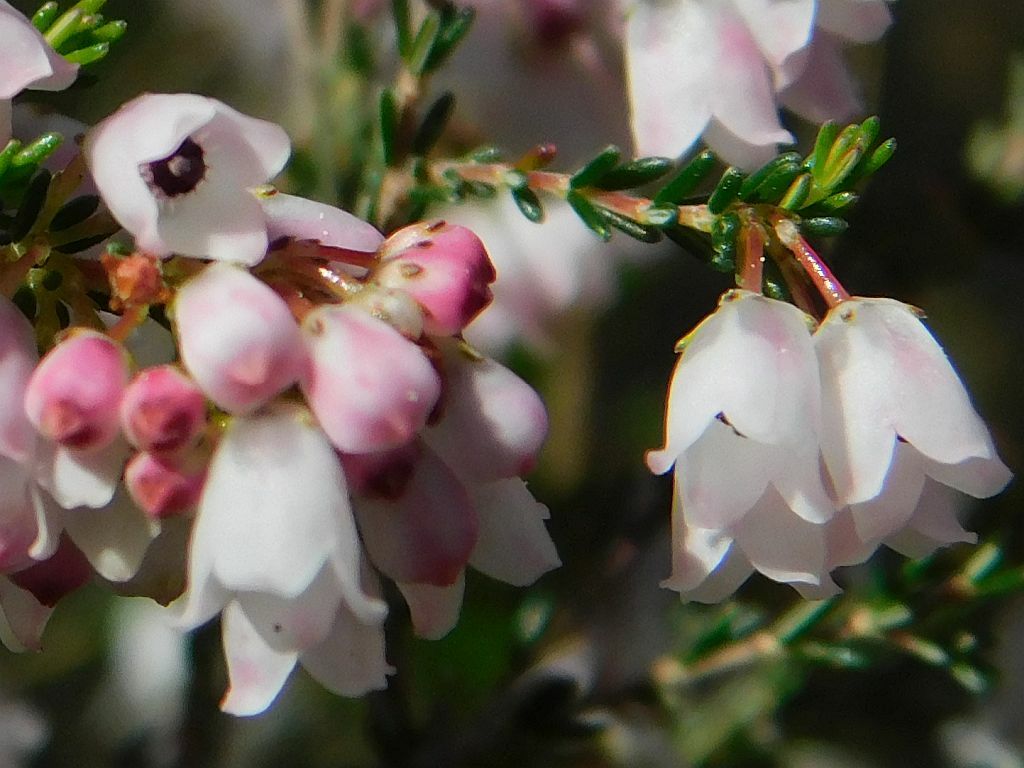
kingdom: Plantae
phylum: Tracheophyta
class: Magnoliopsida
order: Ericales
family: Ericaceae
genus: Erica
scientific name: Erica quadrangularis
